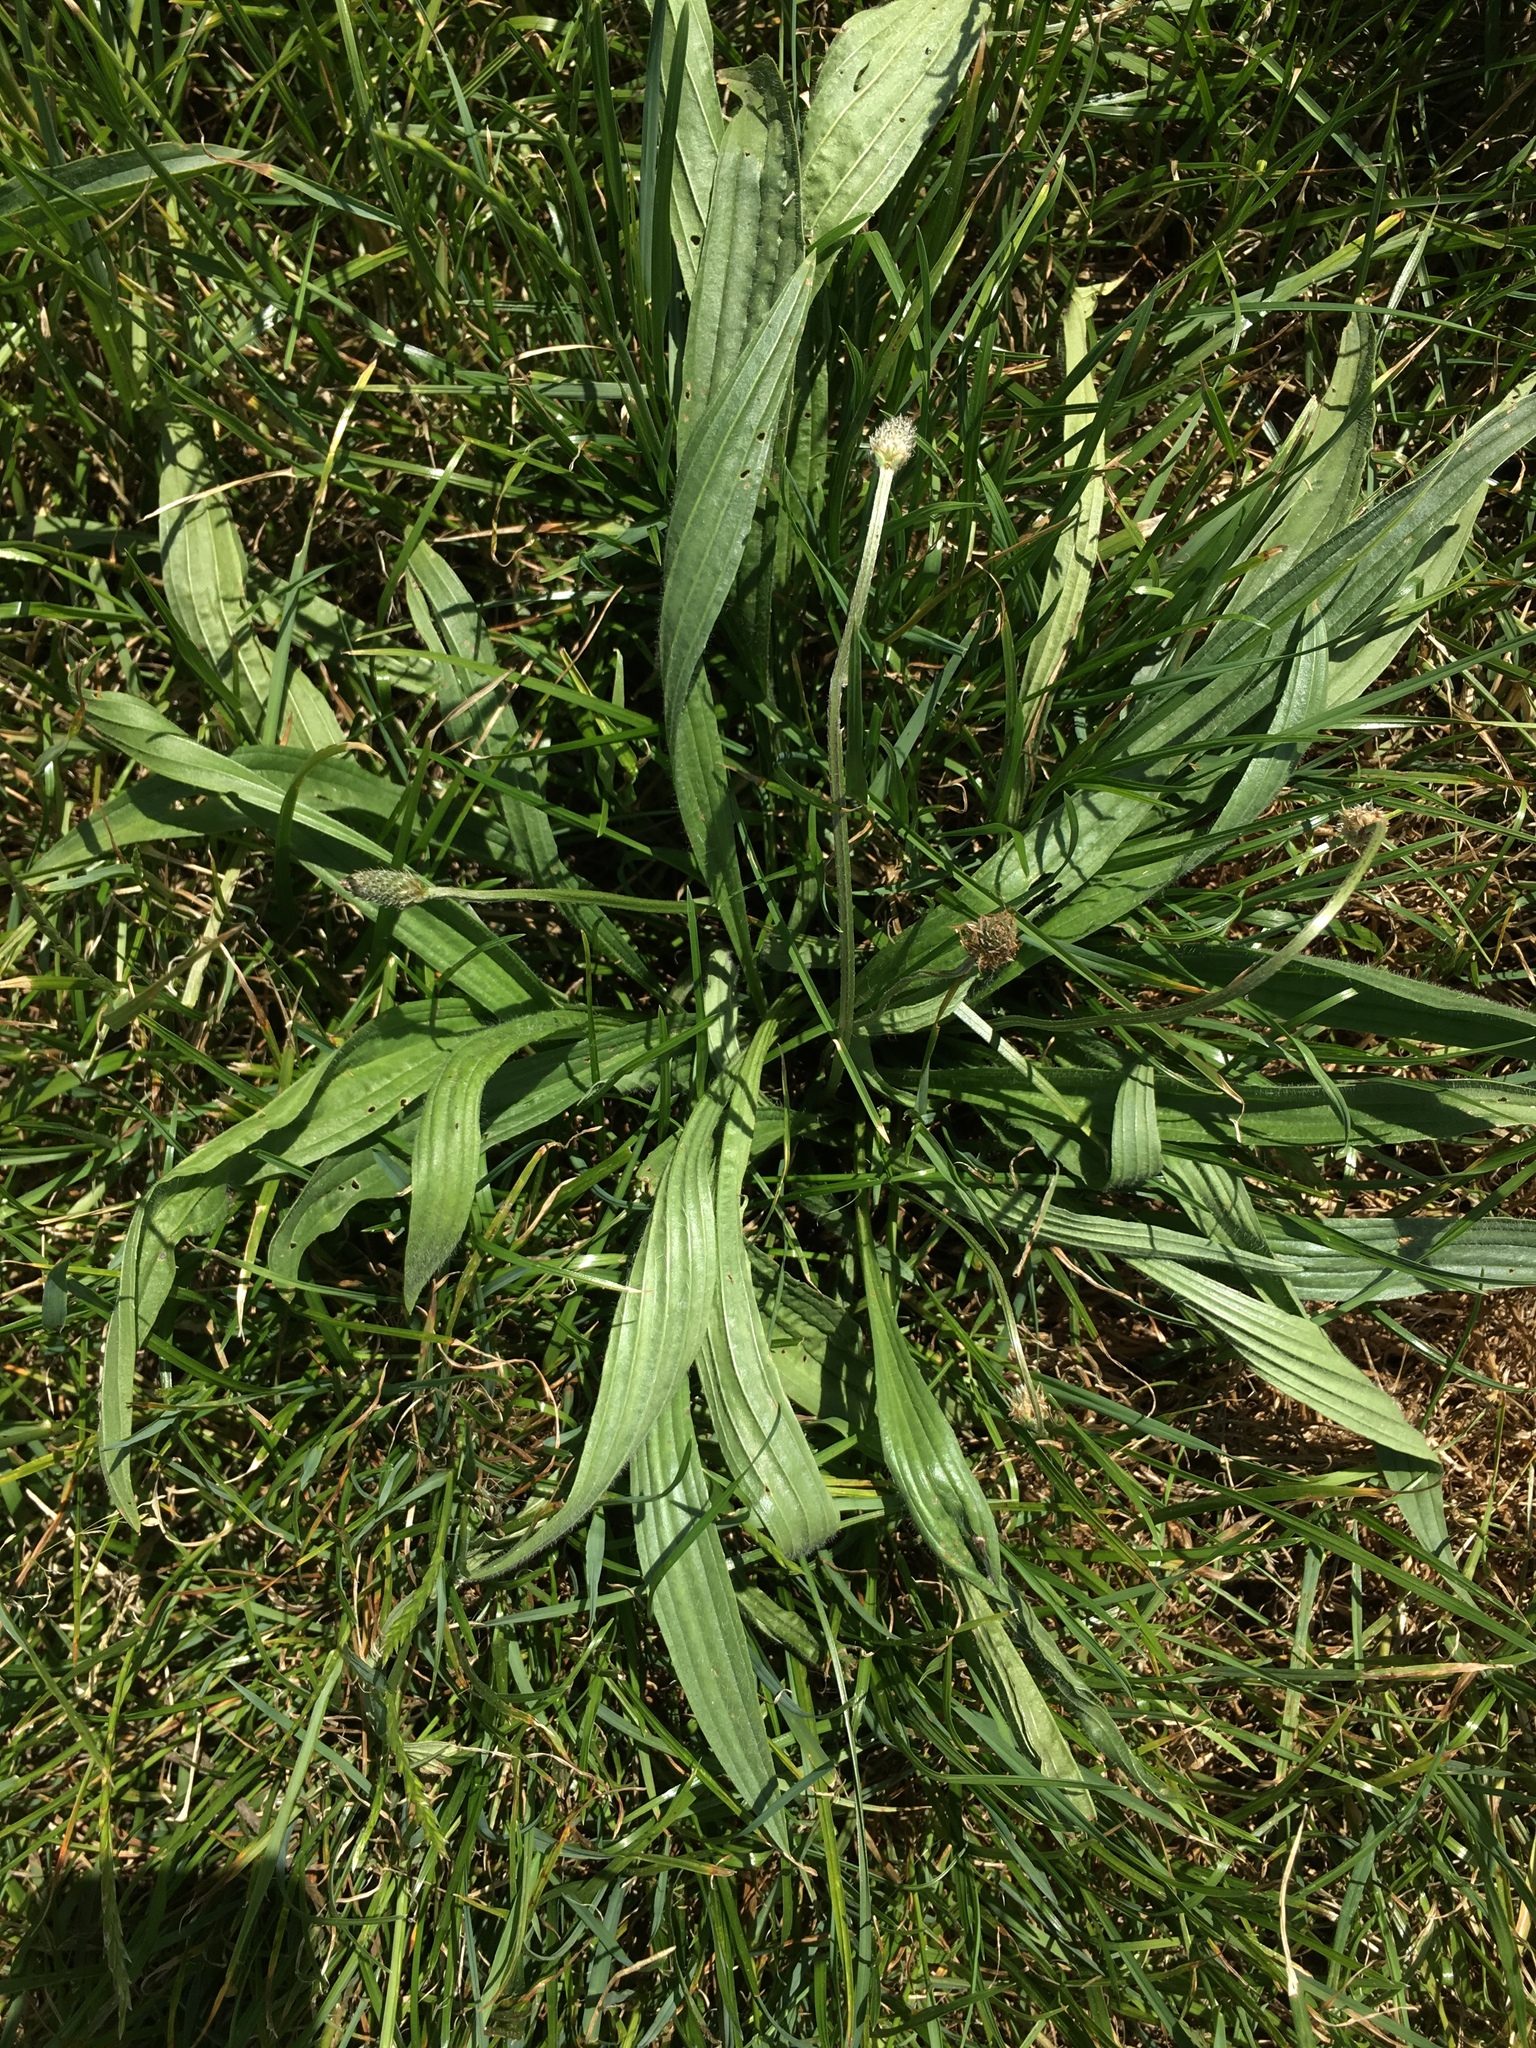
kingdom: Plantae
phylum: Tracheophyta
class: Magnoliopsida
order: Lamiales
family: Plantaginaceae
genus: Plantago
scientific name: Plantago lanceolata
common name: Ribwort plantain
